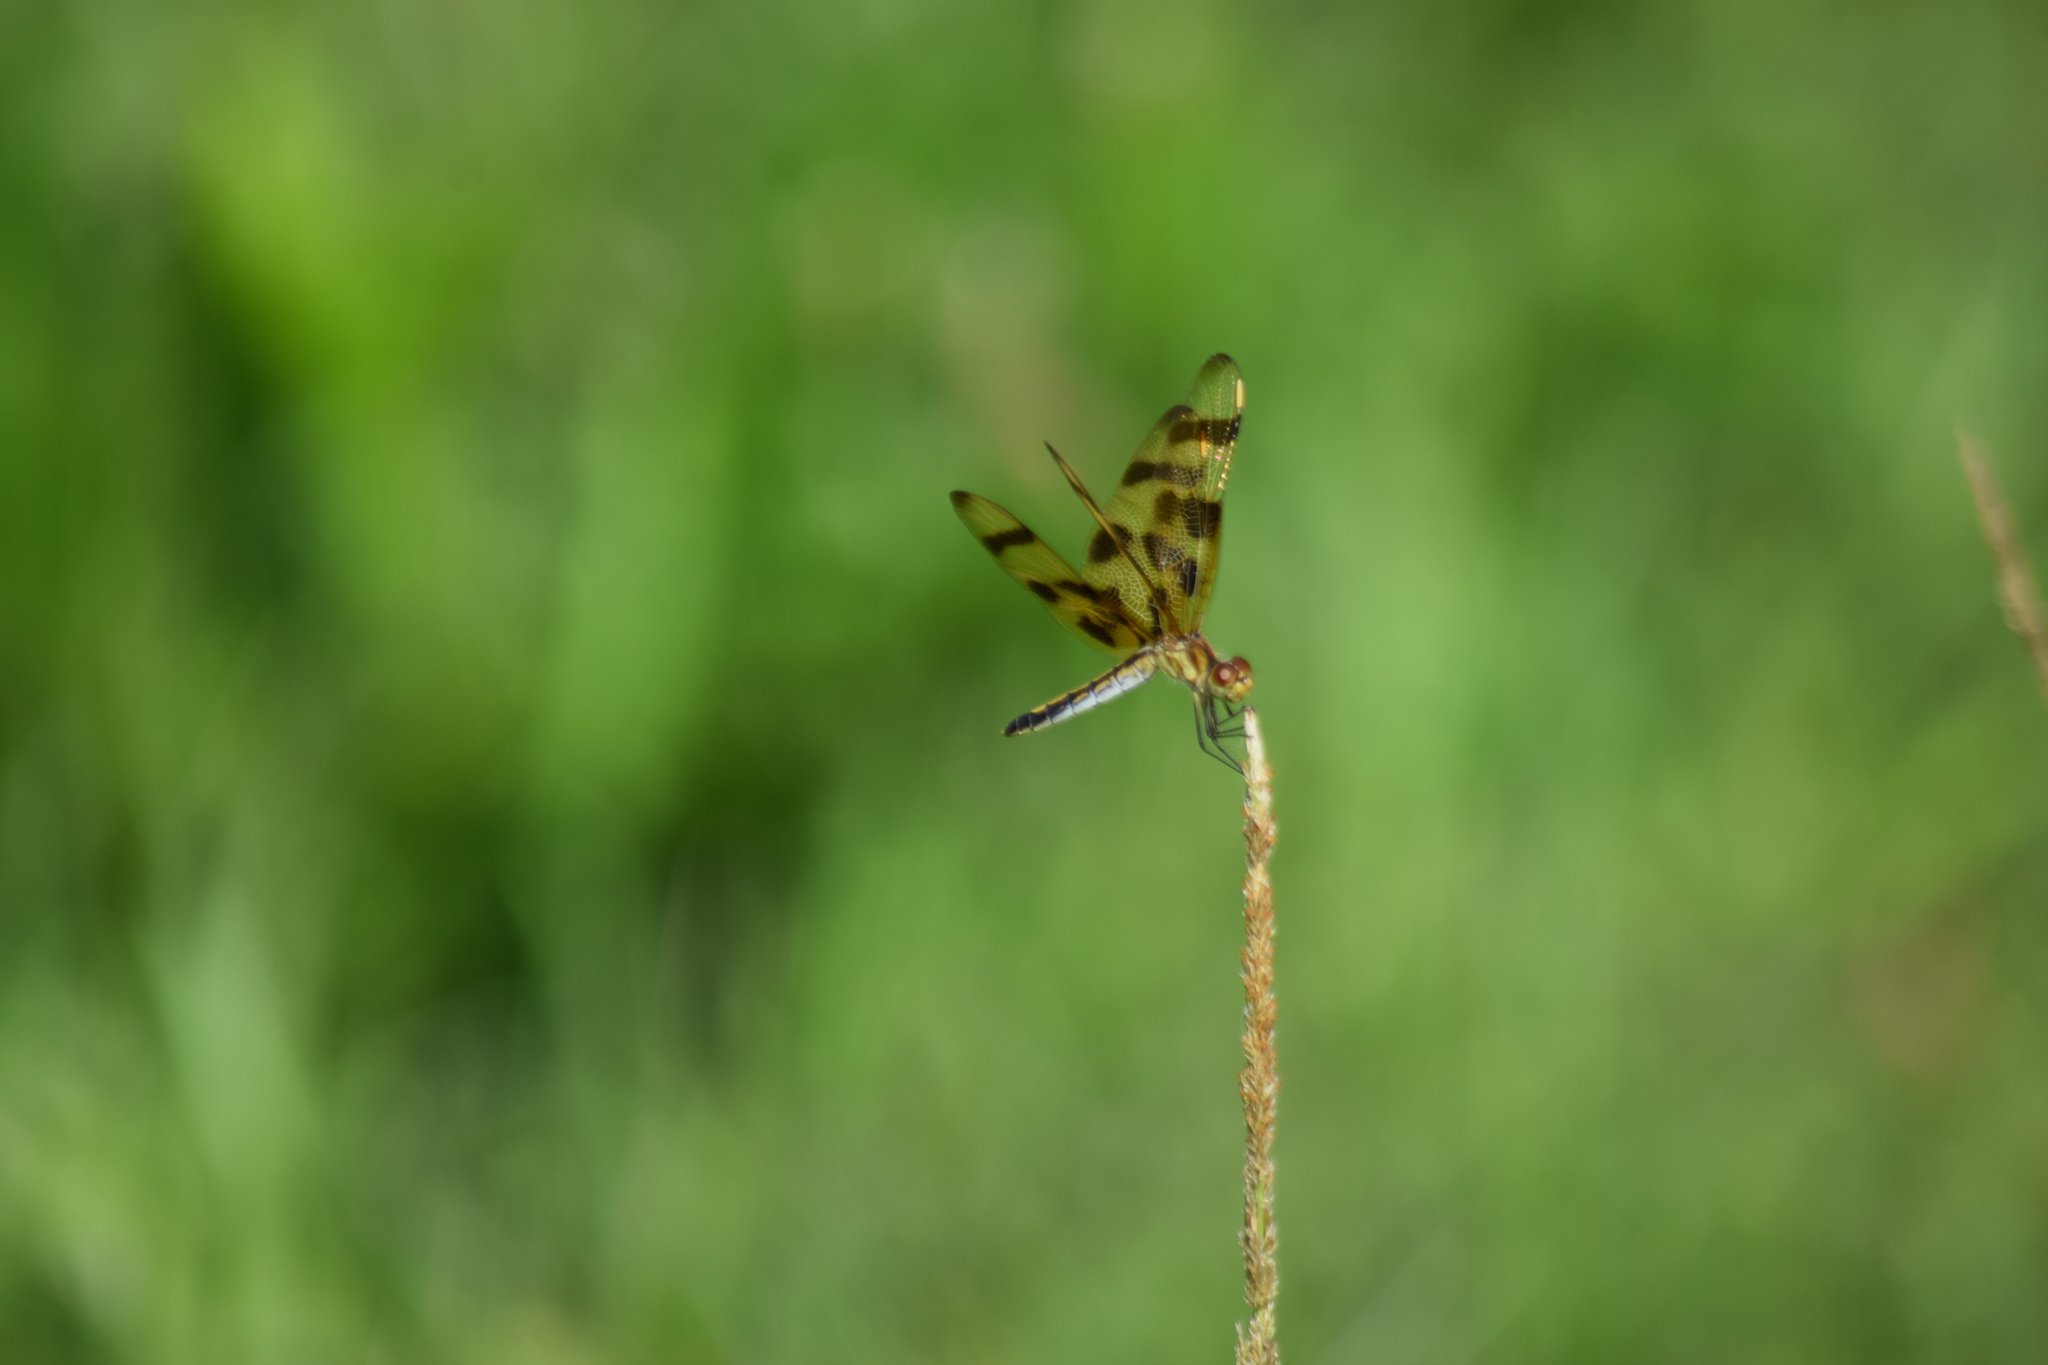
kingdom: Animalia
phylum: Arthropoda
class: Insecta
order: Odonata
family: Libellulidae
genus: Celithemis
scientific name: Celithemis eponina
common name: Halloween pennant
